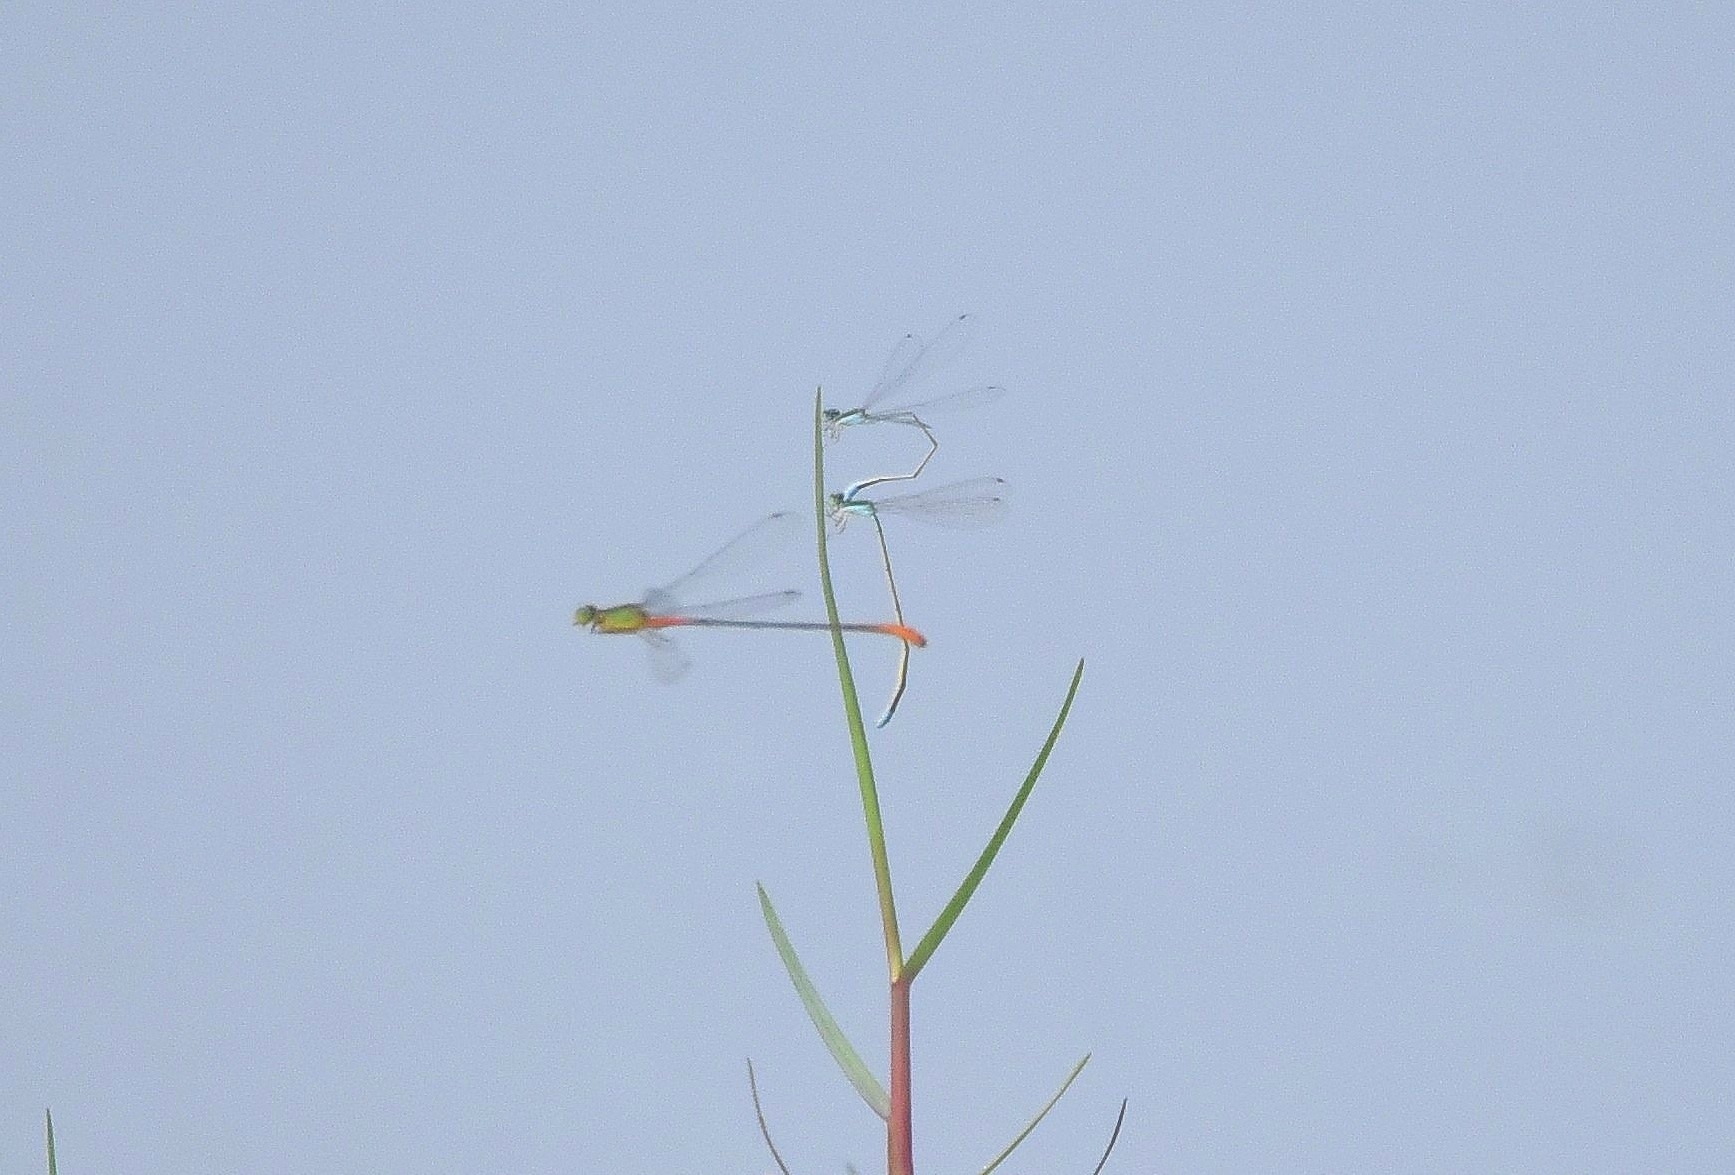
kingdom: Animalia
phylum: Arthropoda
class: Insecta
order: Odonata
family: Coenagrionidae
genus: Ceriagrion
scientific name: Ceriagrion cerinorubellum
